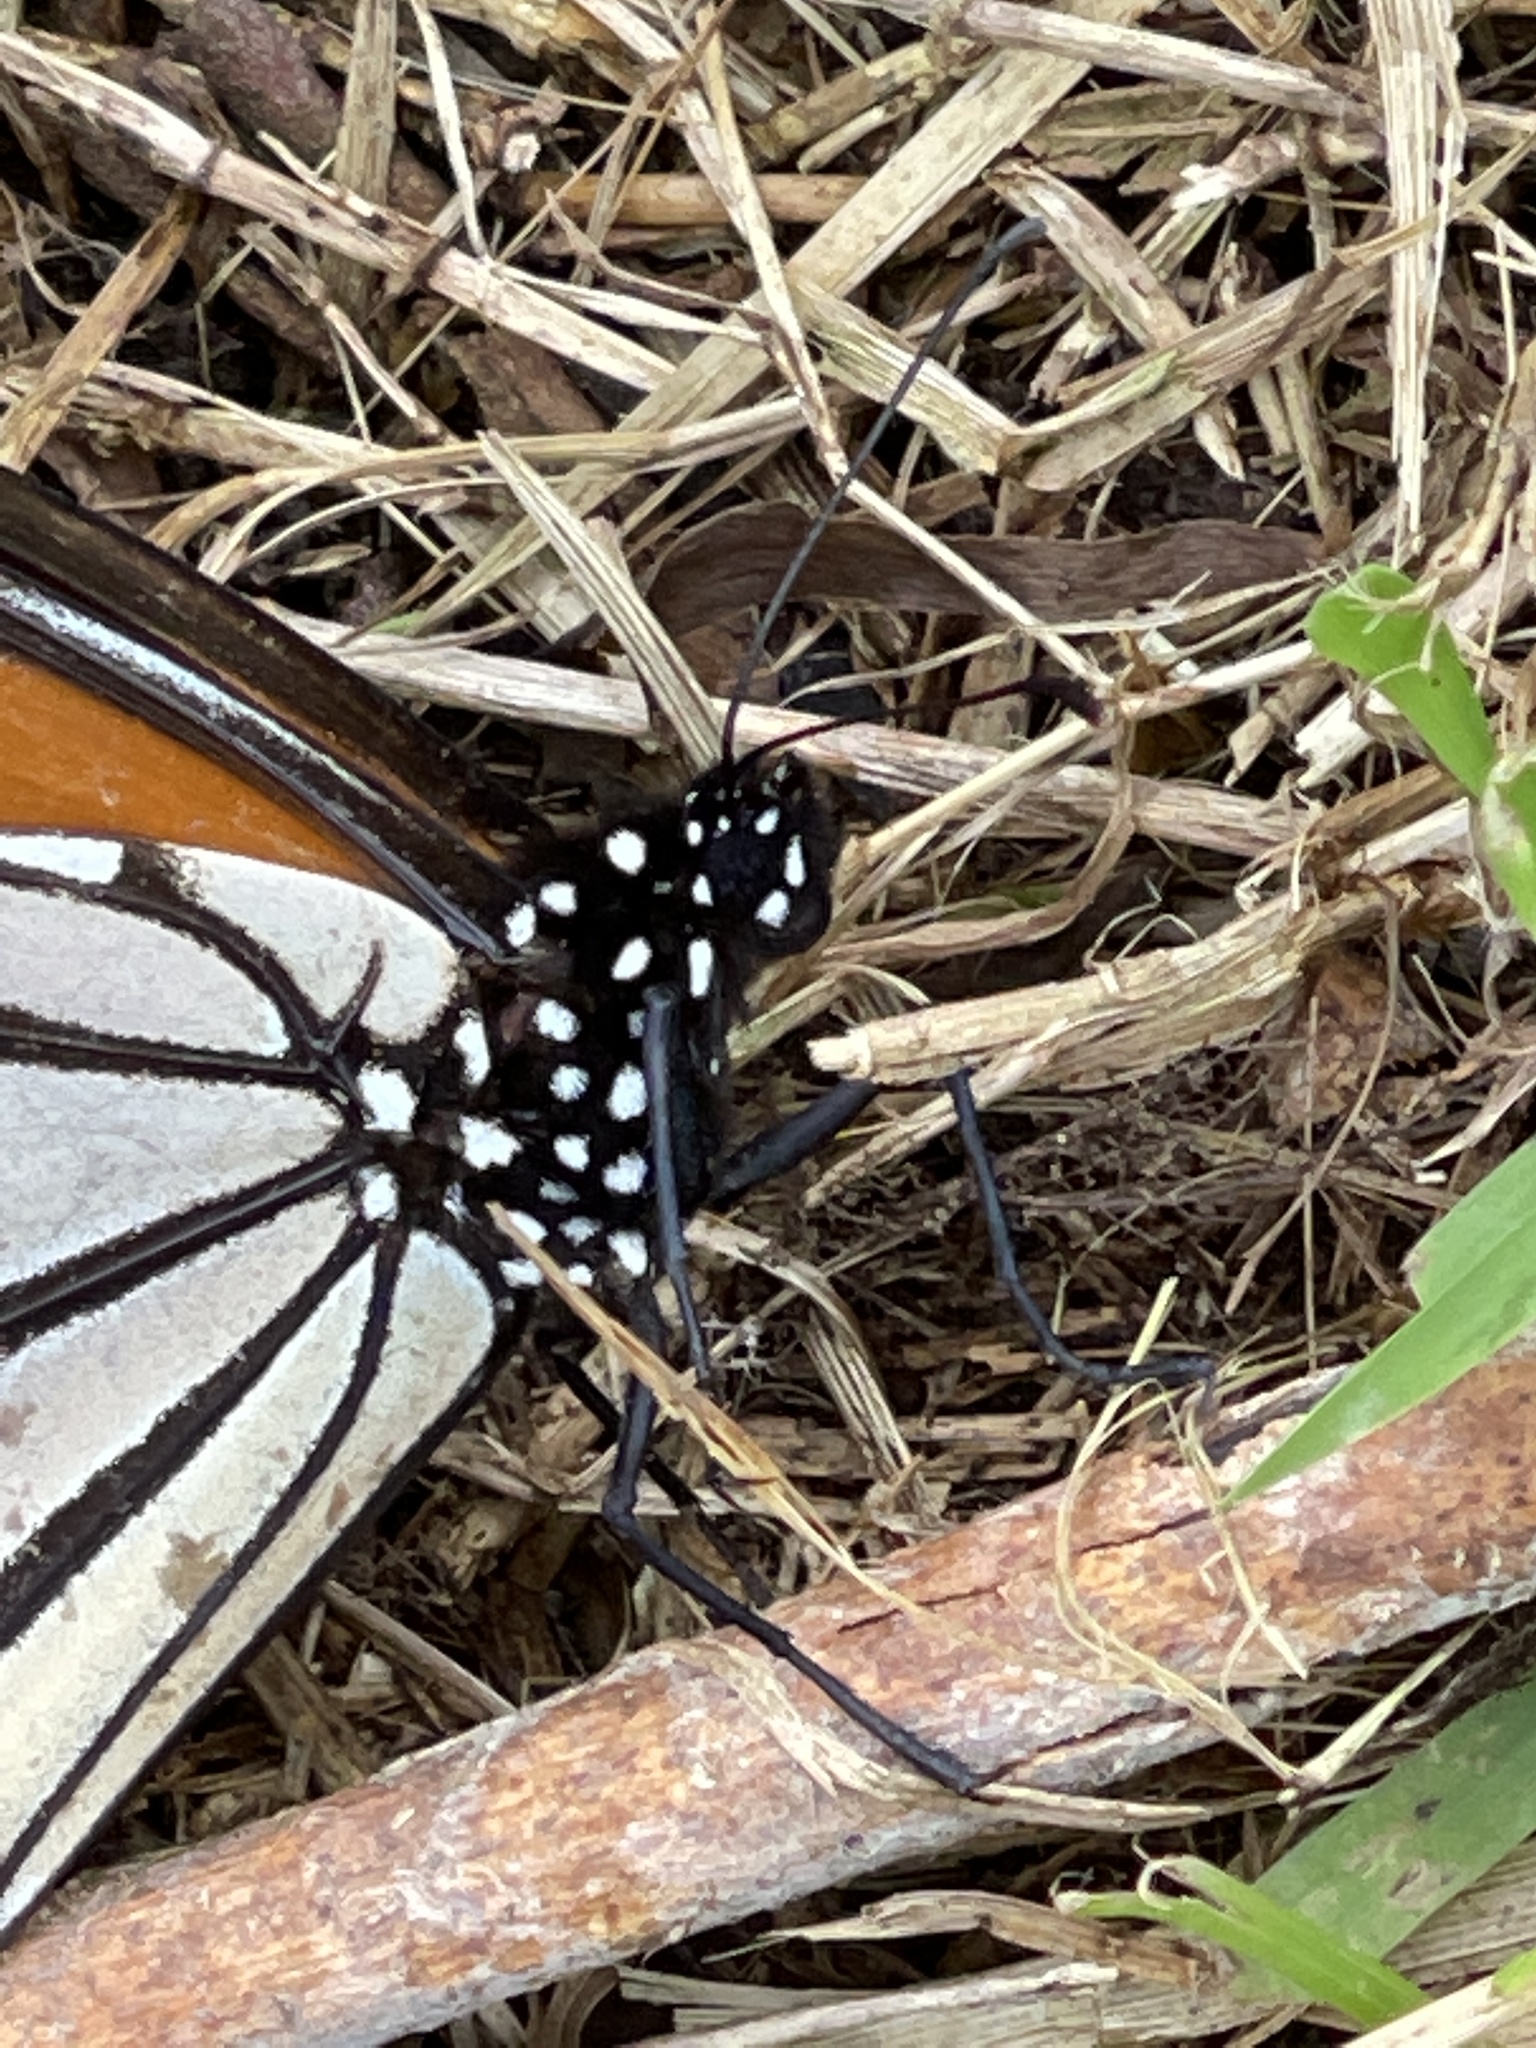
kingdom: Animalia
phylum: Arthropoda
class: Insecta
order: Lepidoptera
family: Nymphalidae
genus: Danaus
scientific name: Danaus plexippus
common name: Monarch
